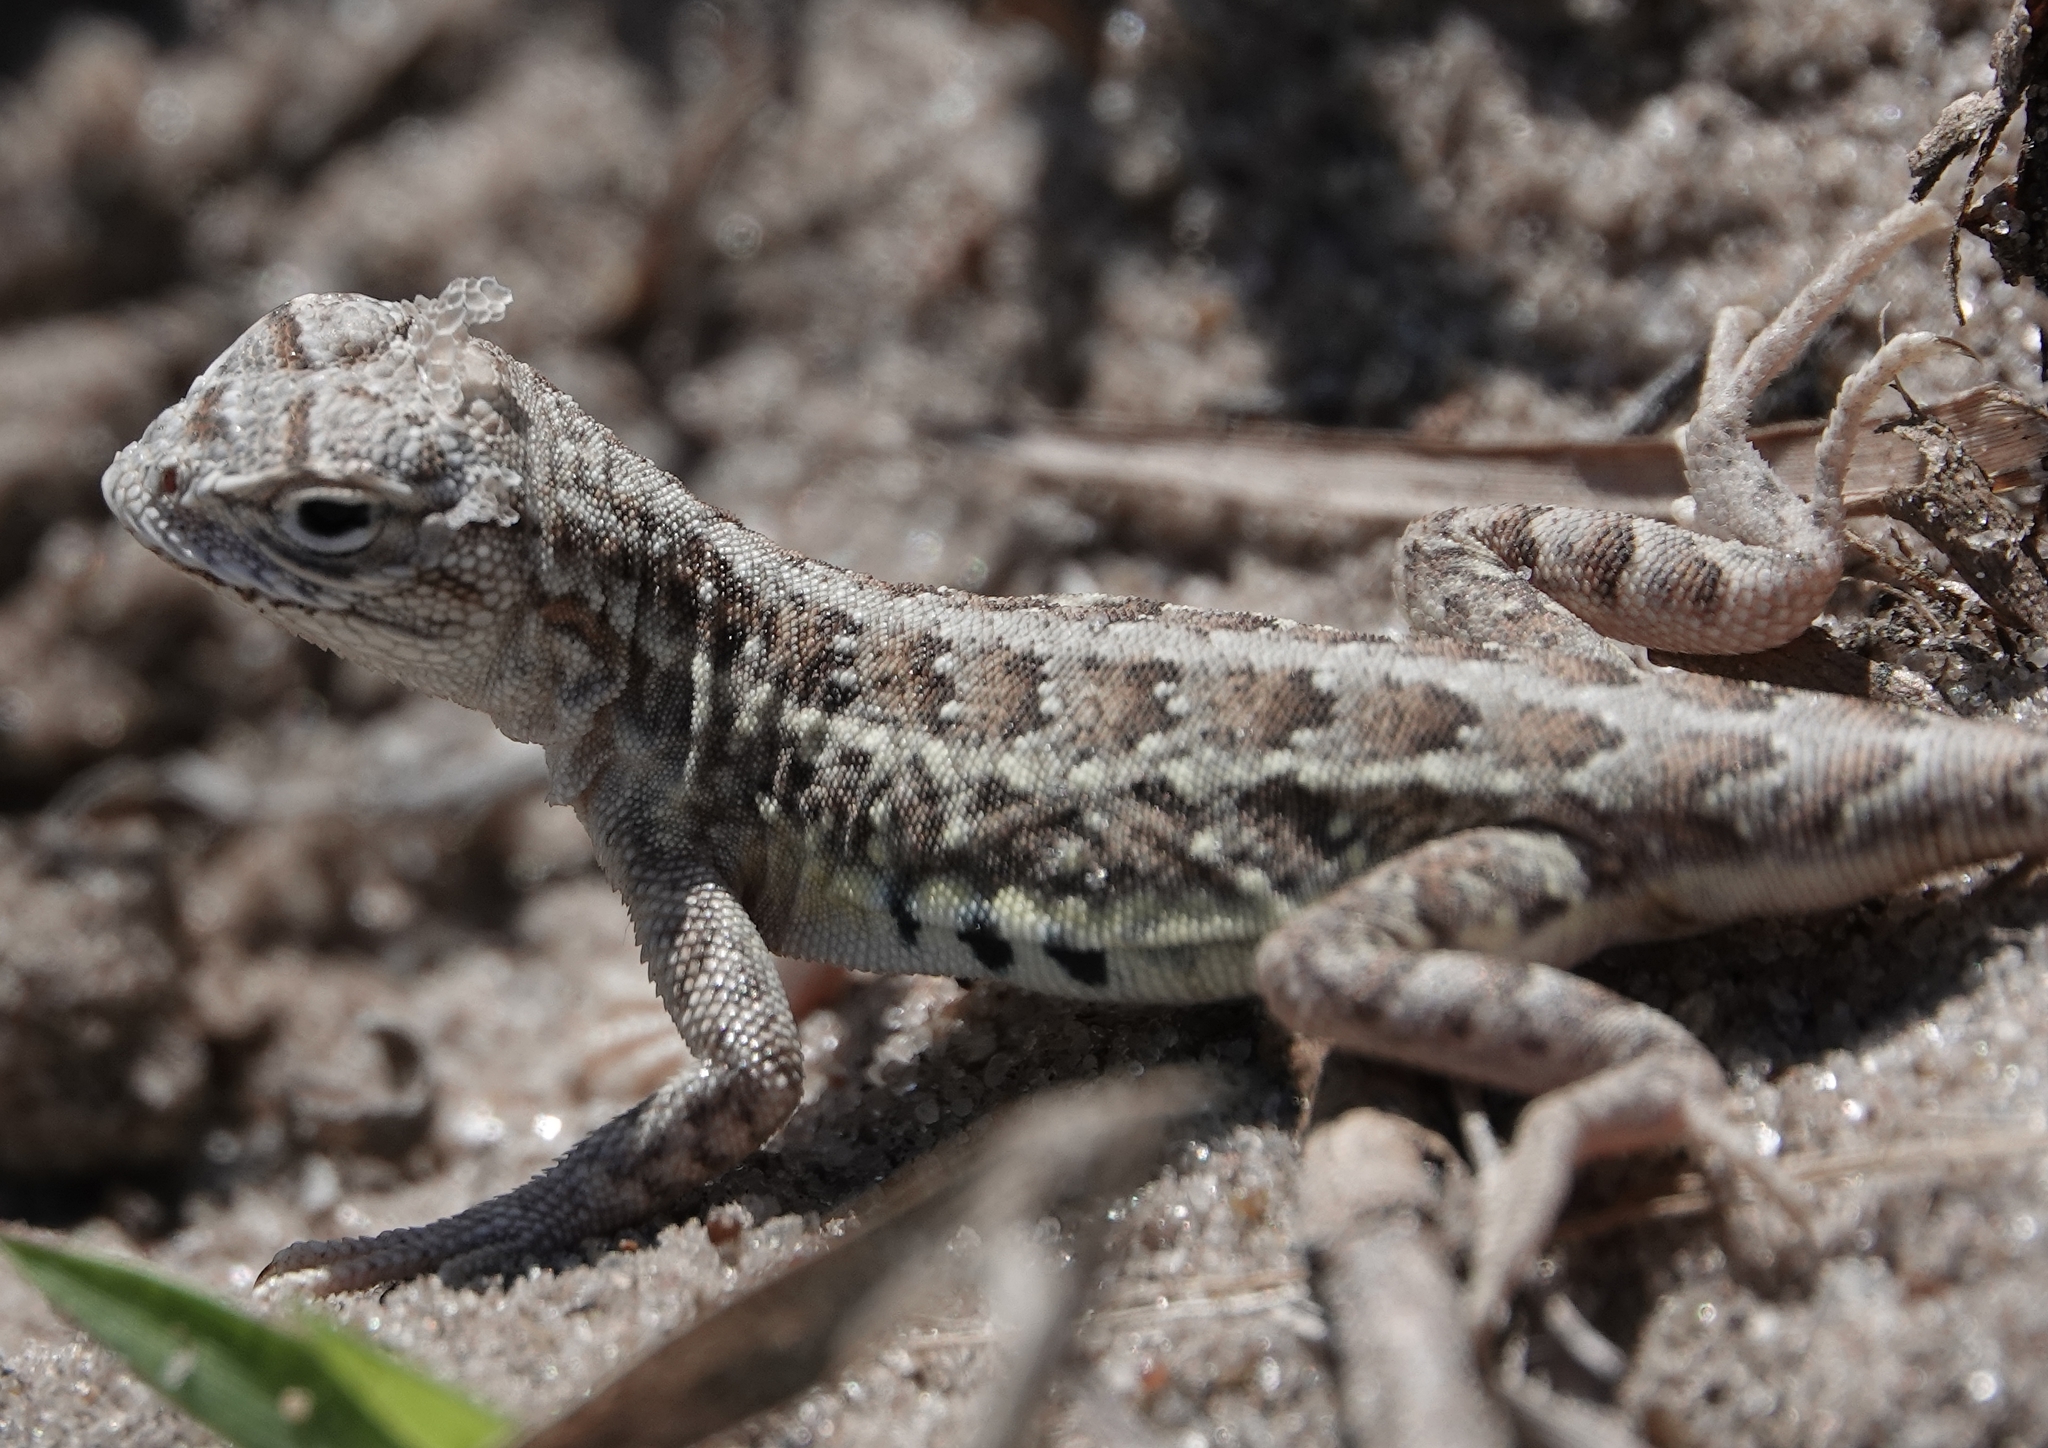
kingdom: Animalia
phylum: Chordata
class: Squamata
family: Phrynosomatidae
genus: Holbrookia
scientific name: Holbrookia maculata
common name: Lesser earless lizard
